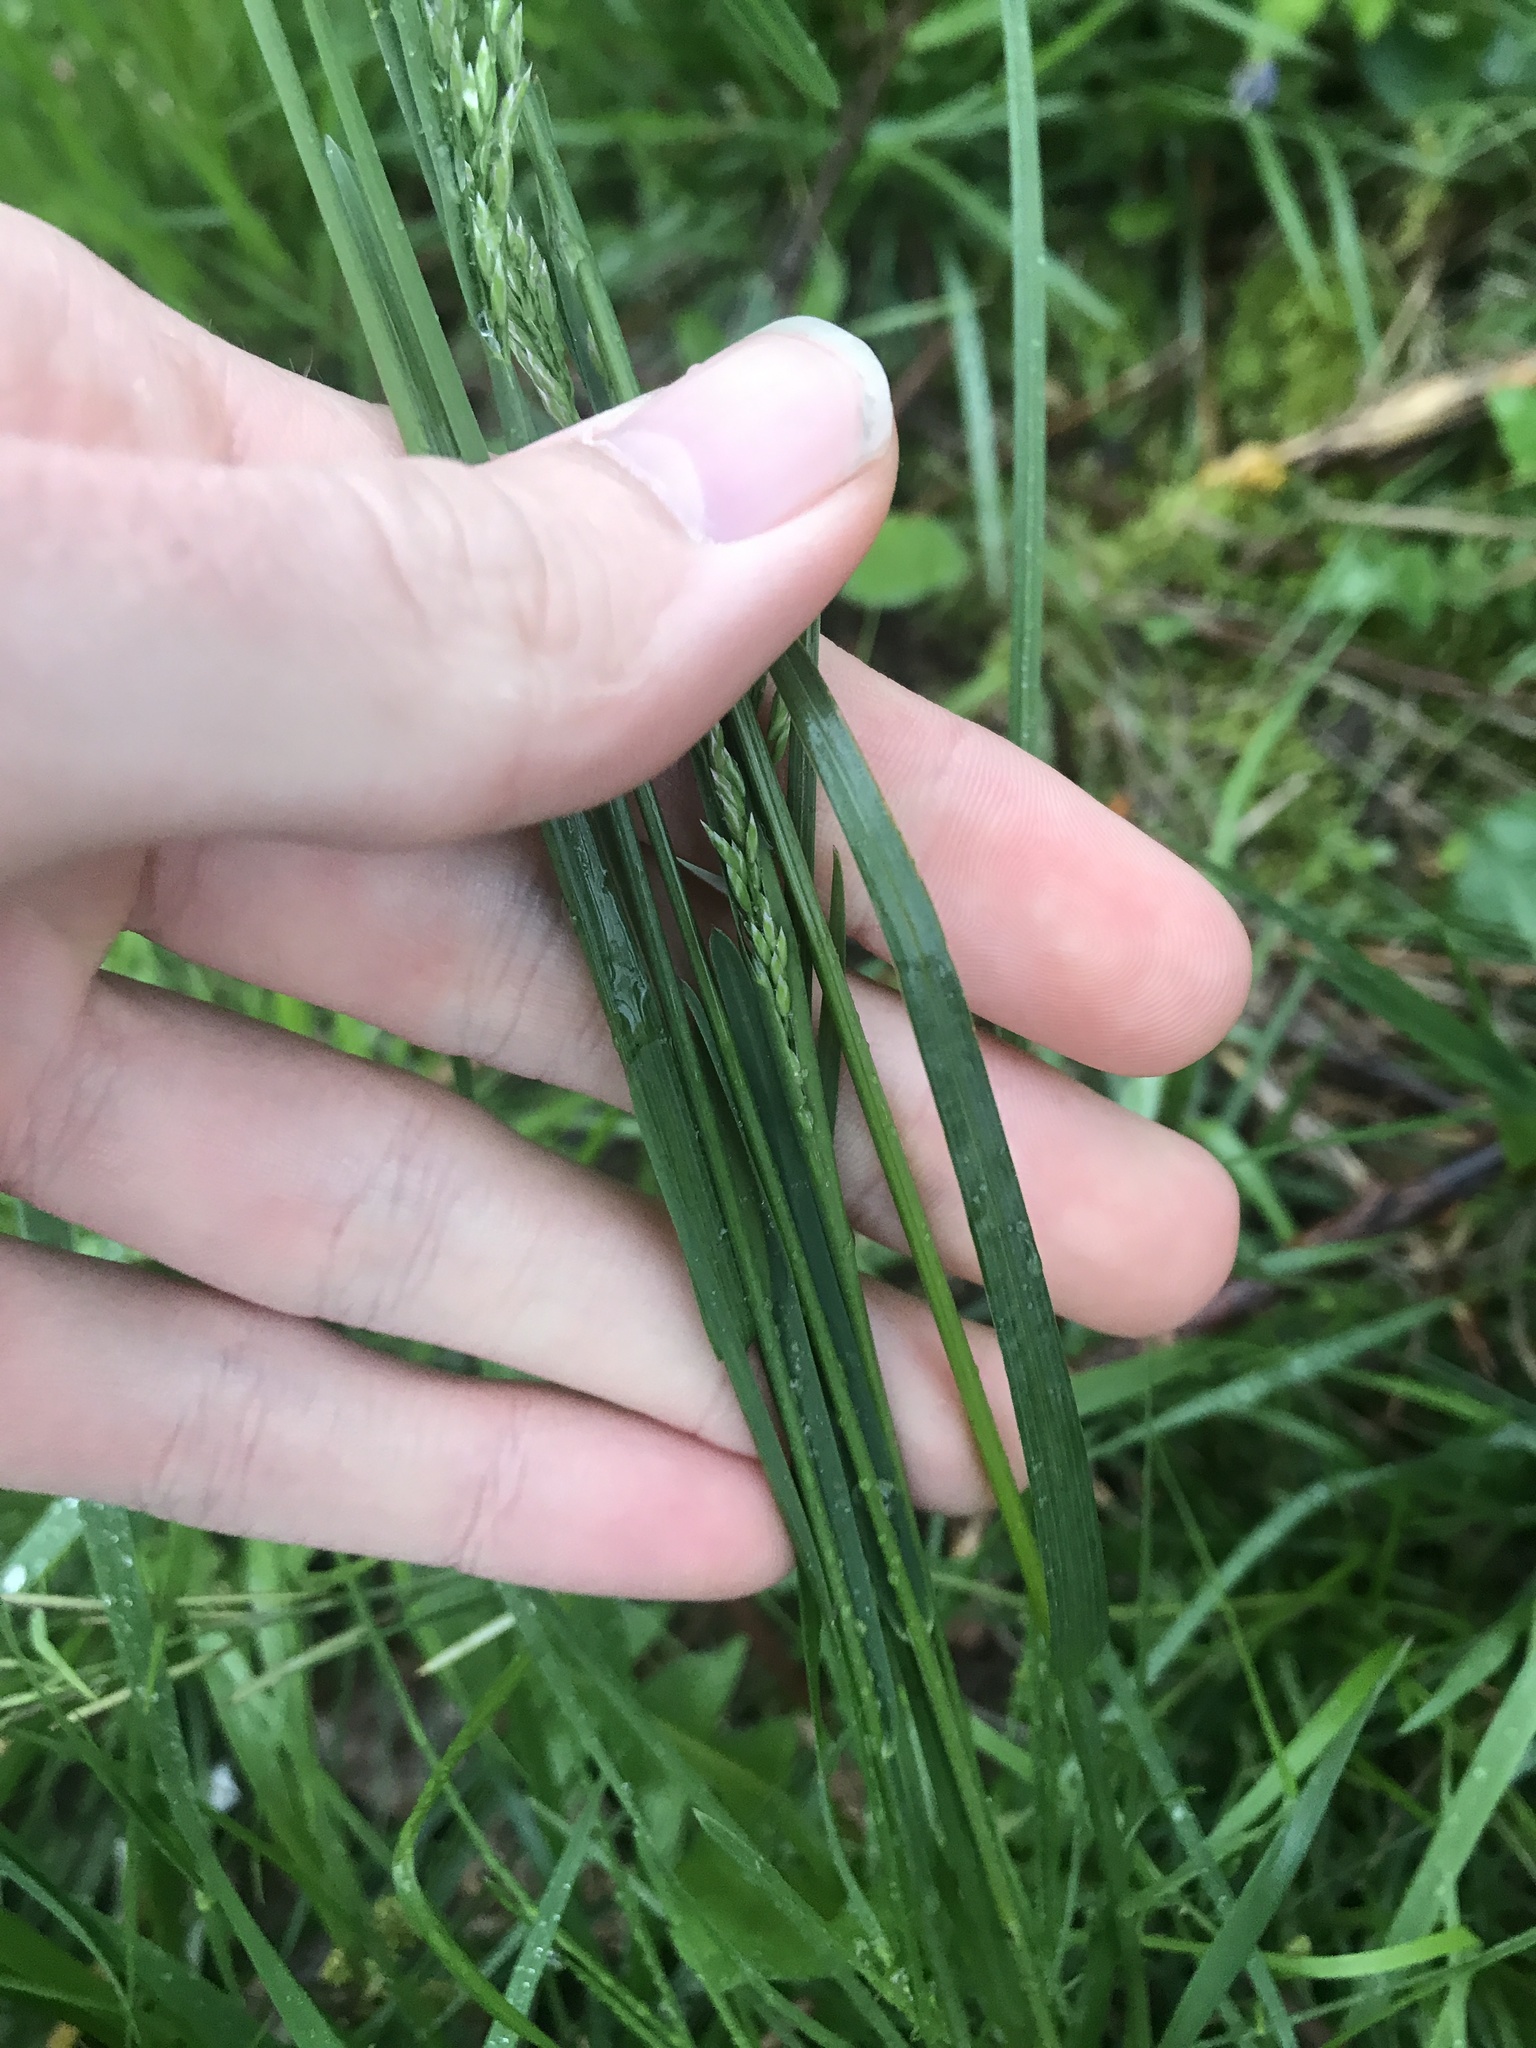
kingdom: Plantae
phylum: Tracheophyta
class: Liliopsida
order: Poales
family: Poaceae
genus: Poa
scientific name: Poa pratensis
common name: Kentucky bluegrass
